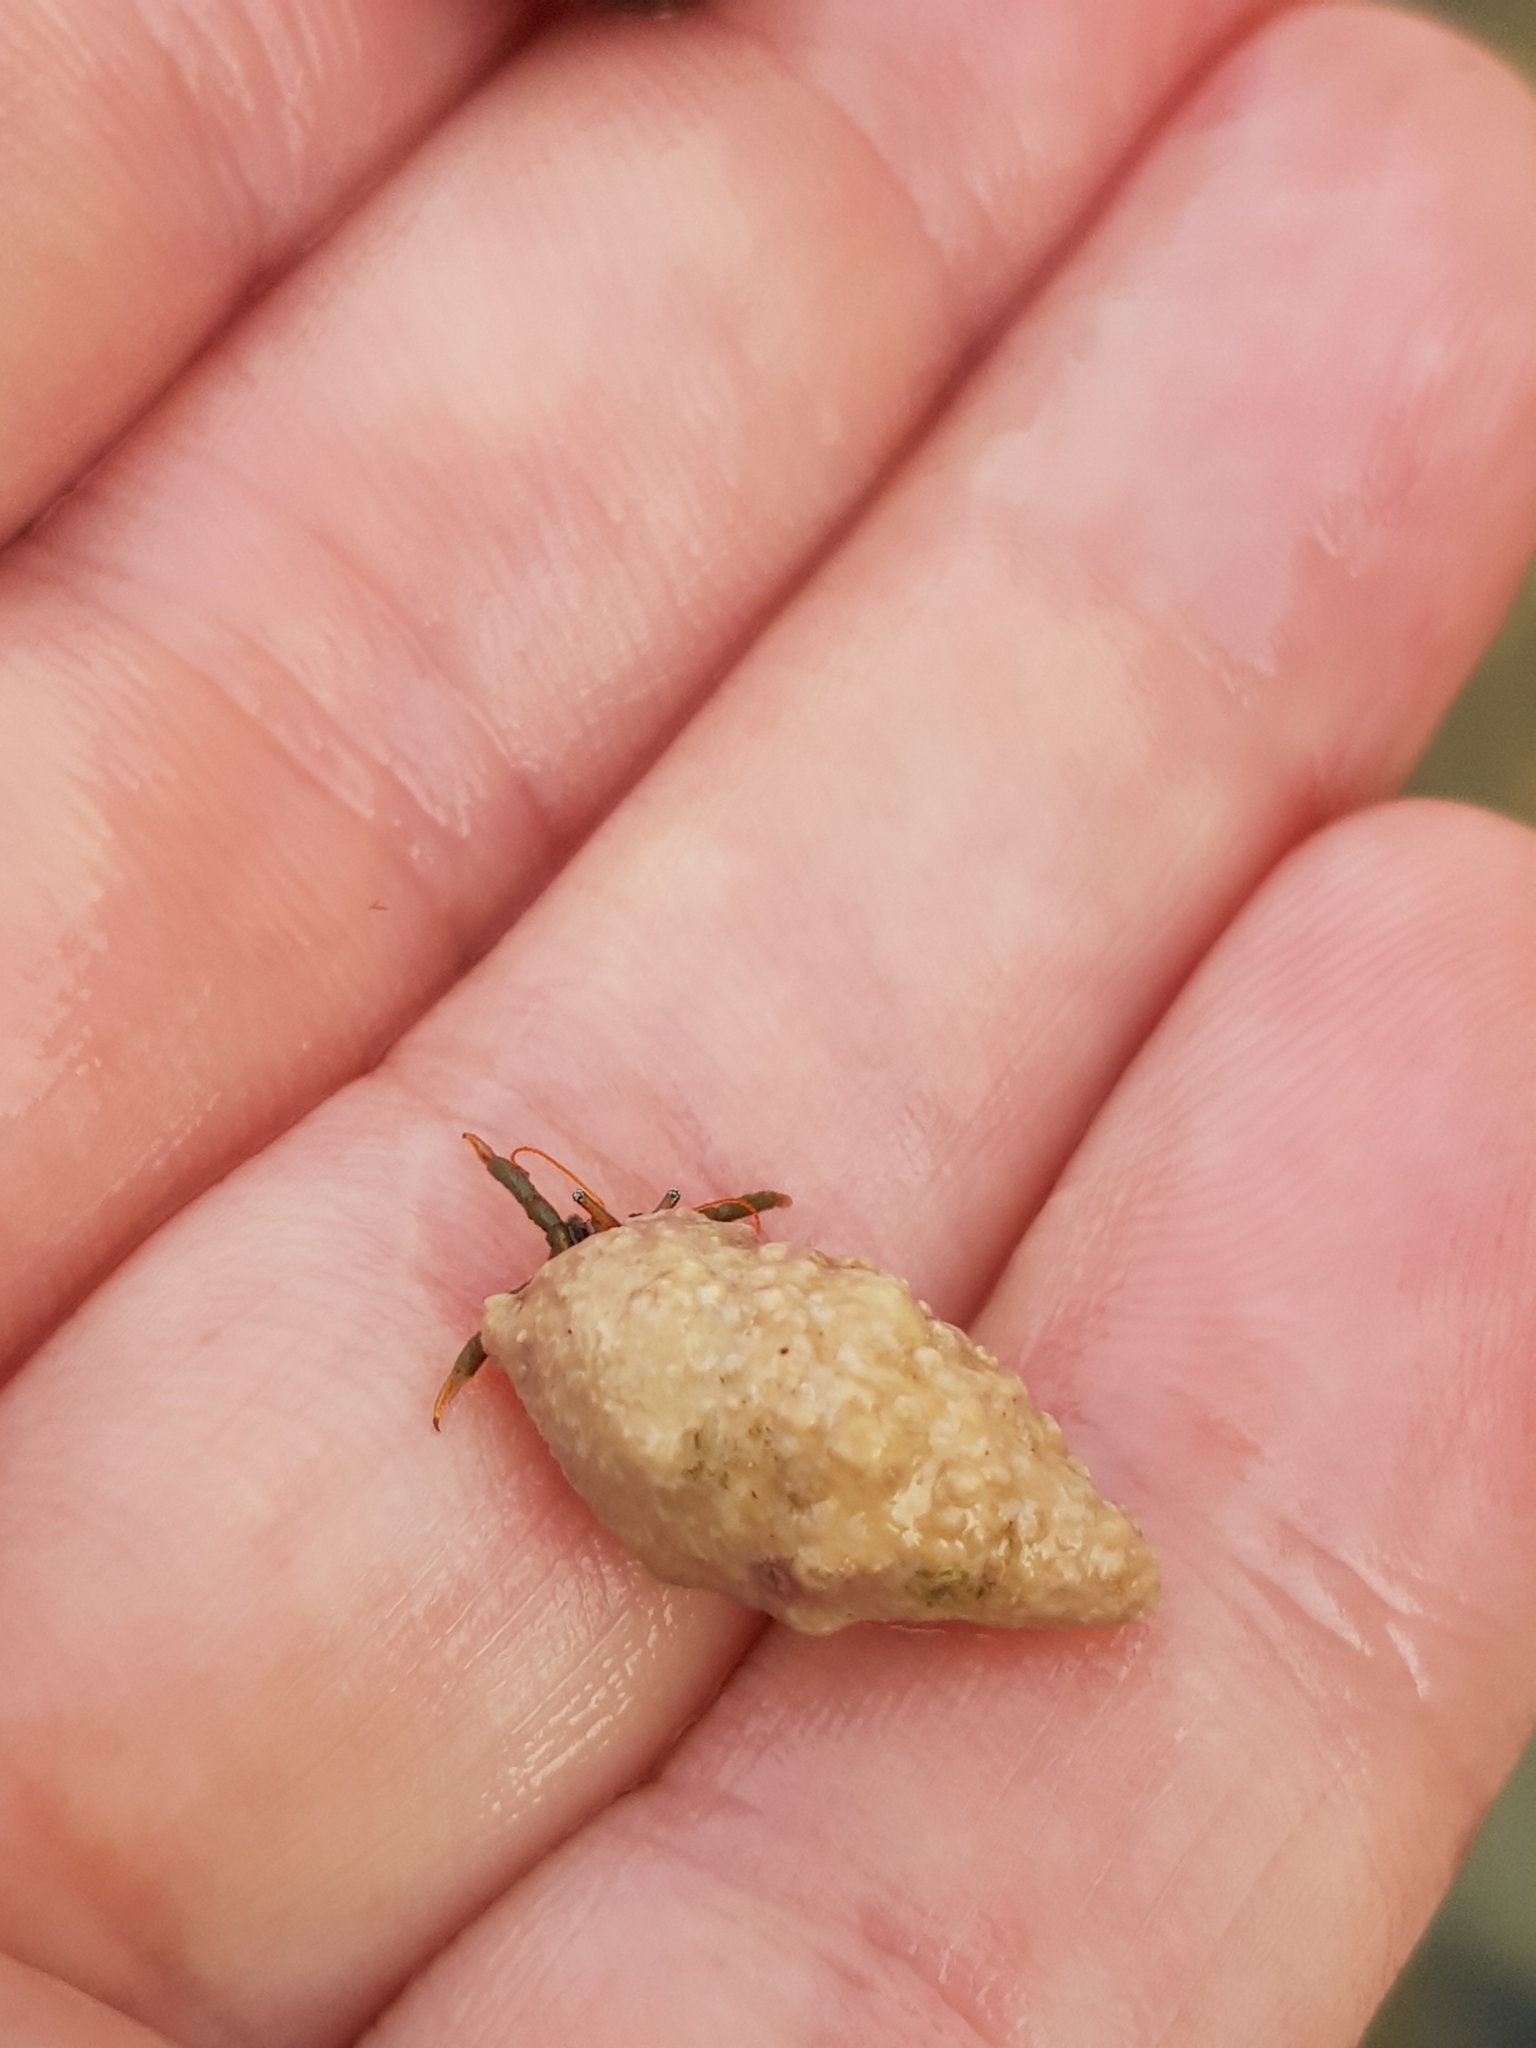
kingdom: Animalia
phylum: Arthropoda
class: Malacostraca
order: Decapoda
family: Diogenidae
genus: Clibanarius
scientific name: Clibanarius erythropus
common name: Hermit crab
